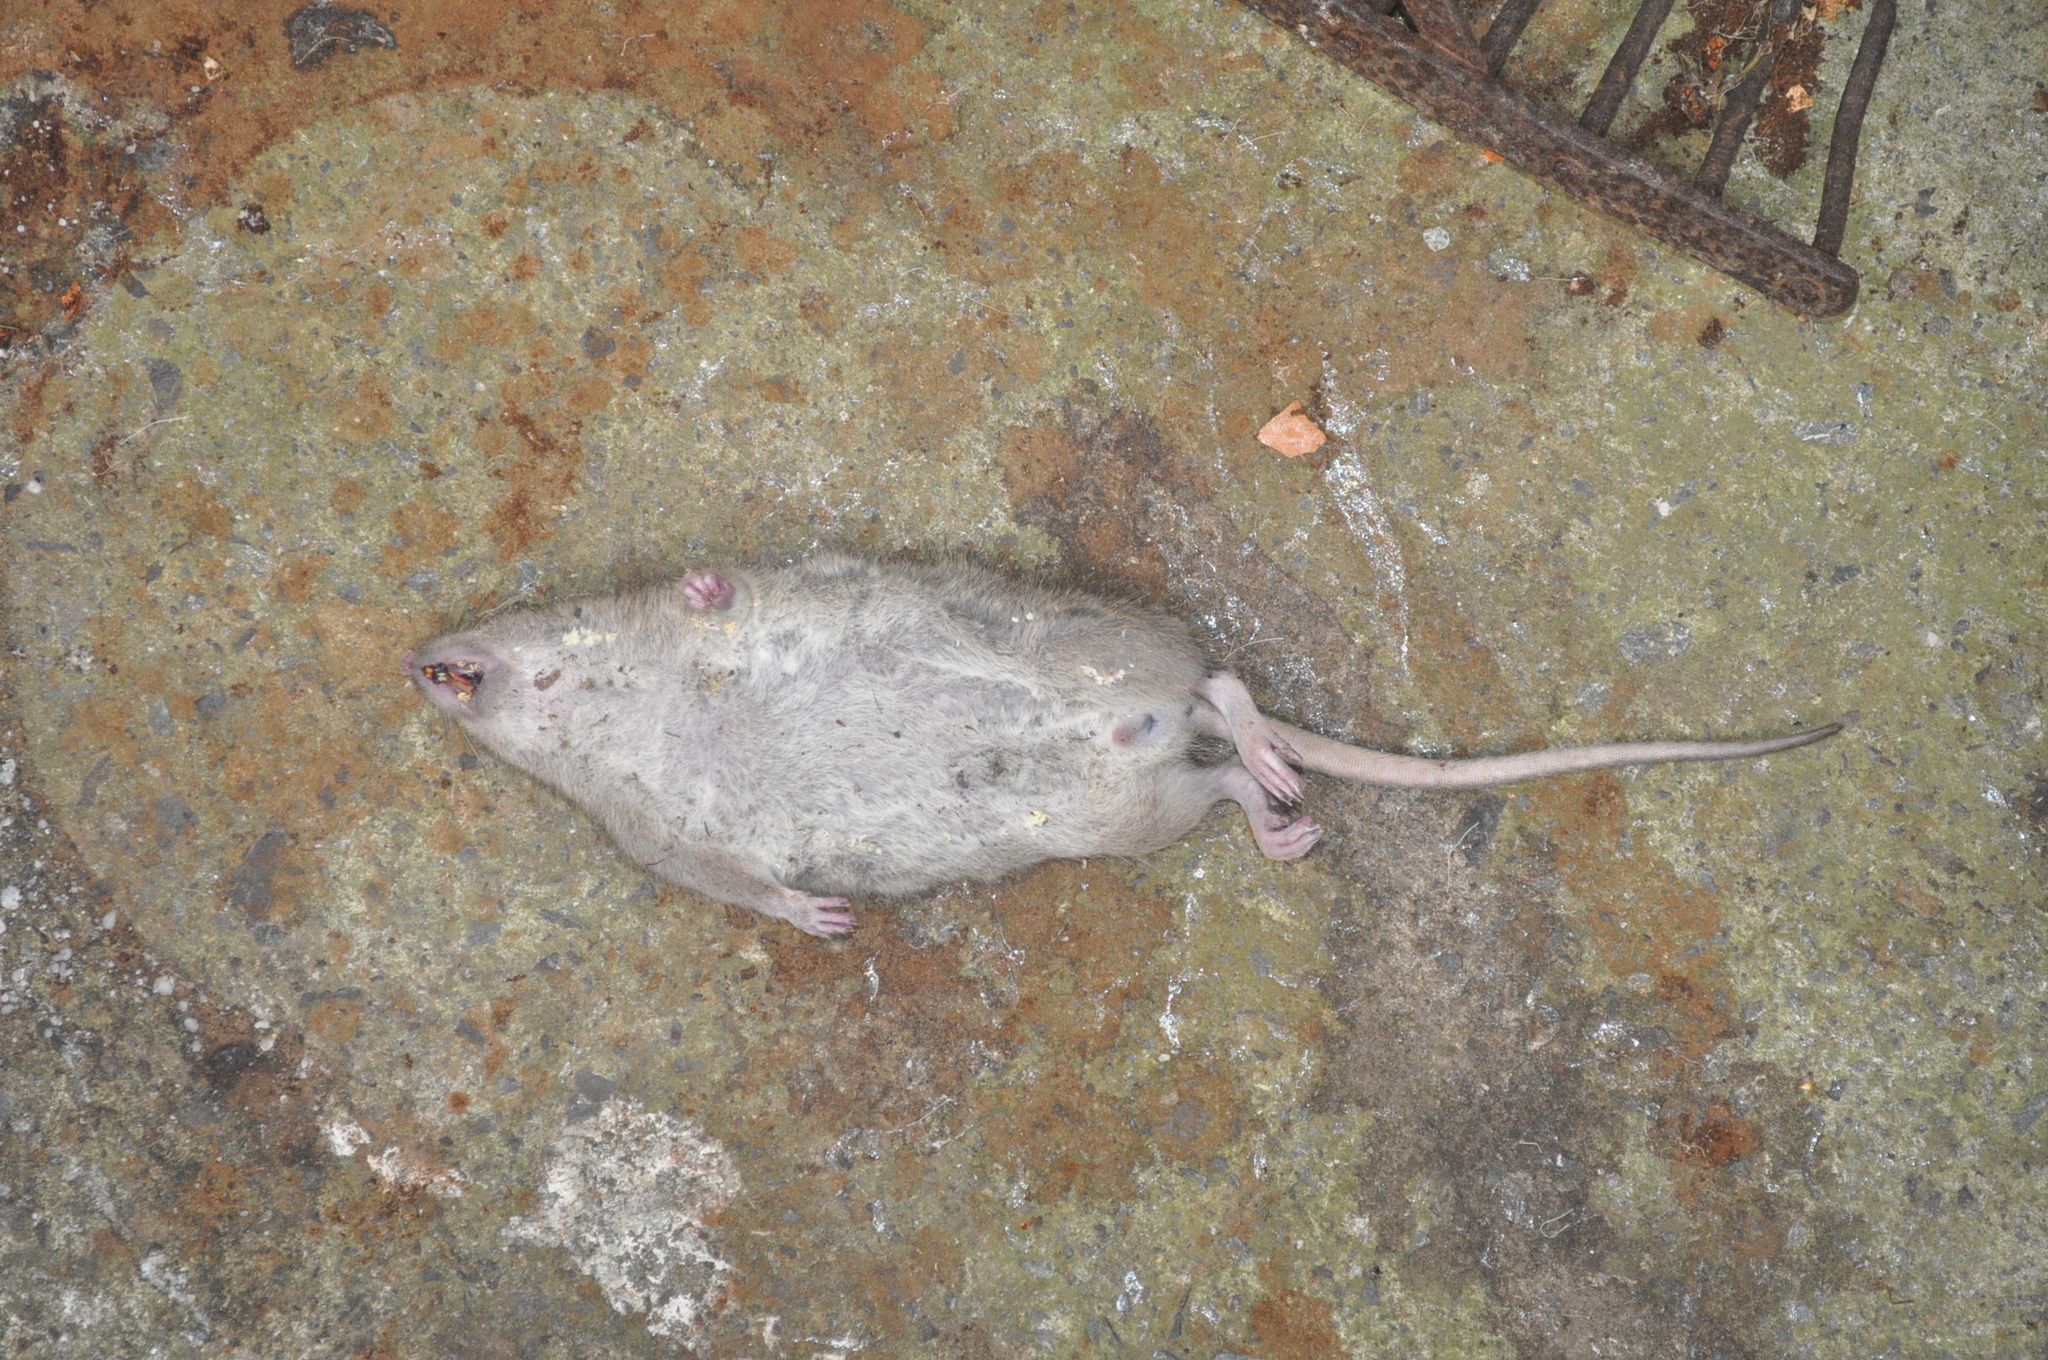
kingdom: Animalia
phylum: Chordata
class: Mammalia
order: Rodentia
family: Muridae
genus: Rattus
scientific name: Rattus norvegicus
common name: Brown rat
